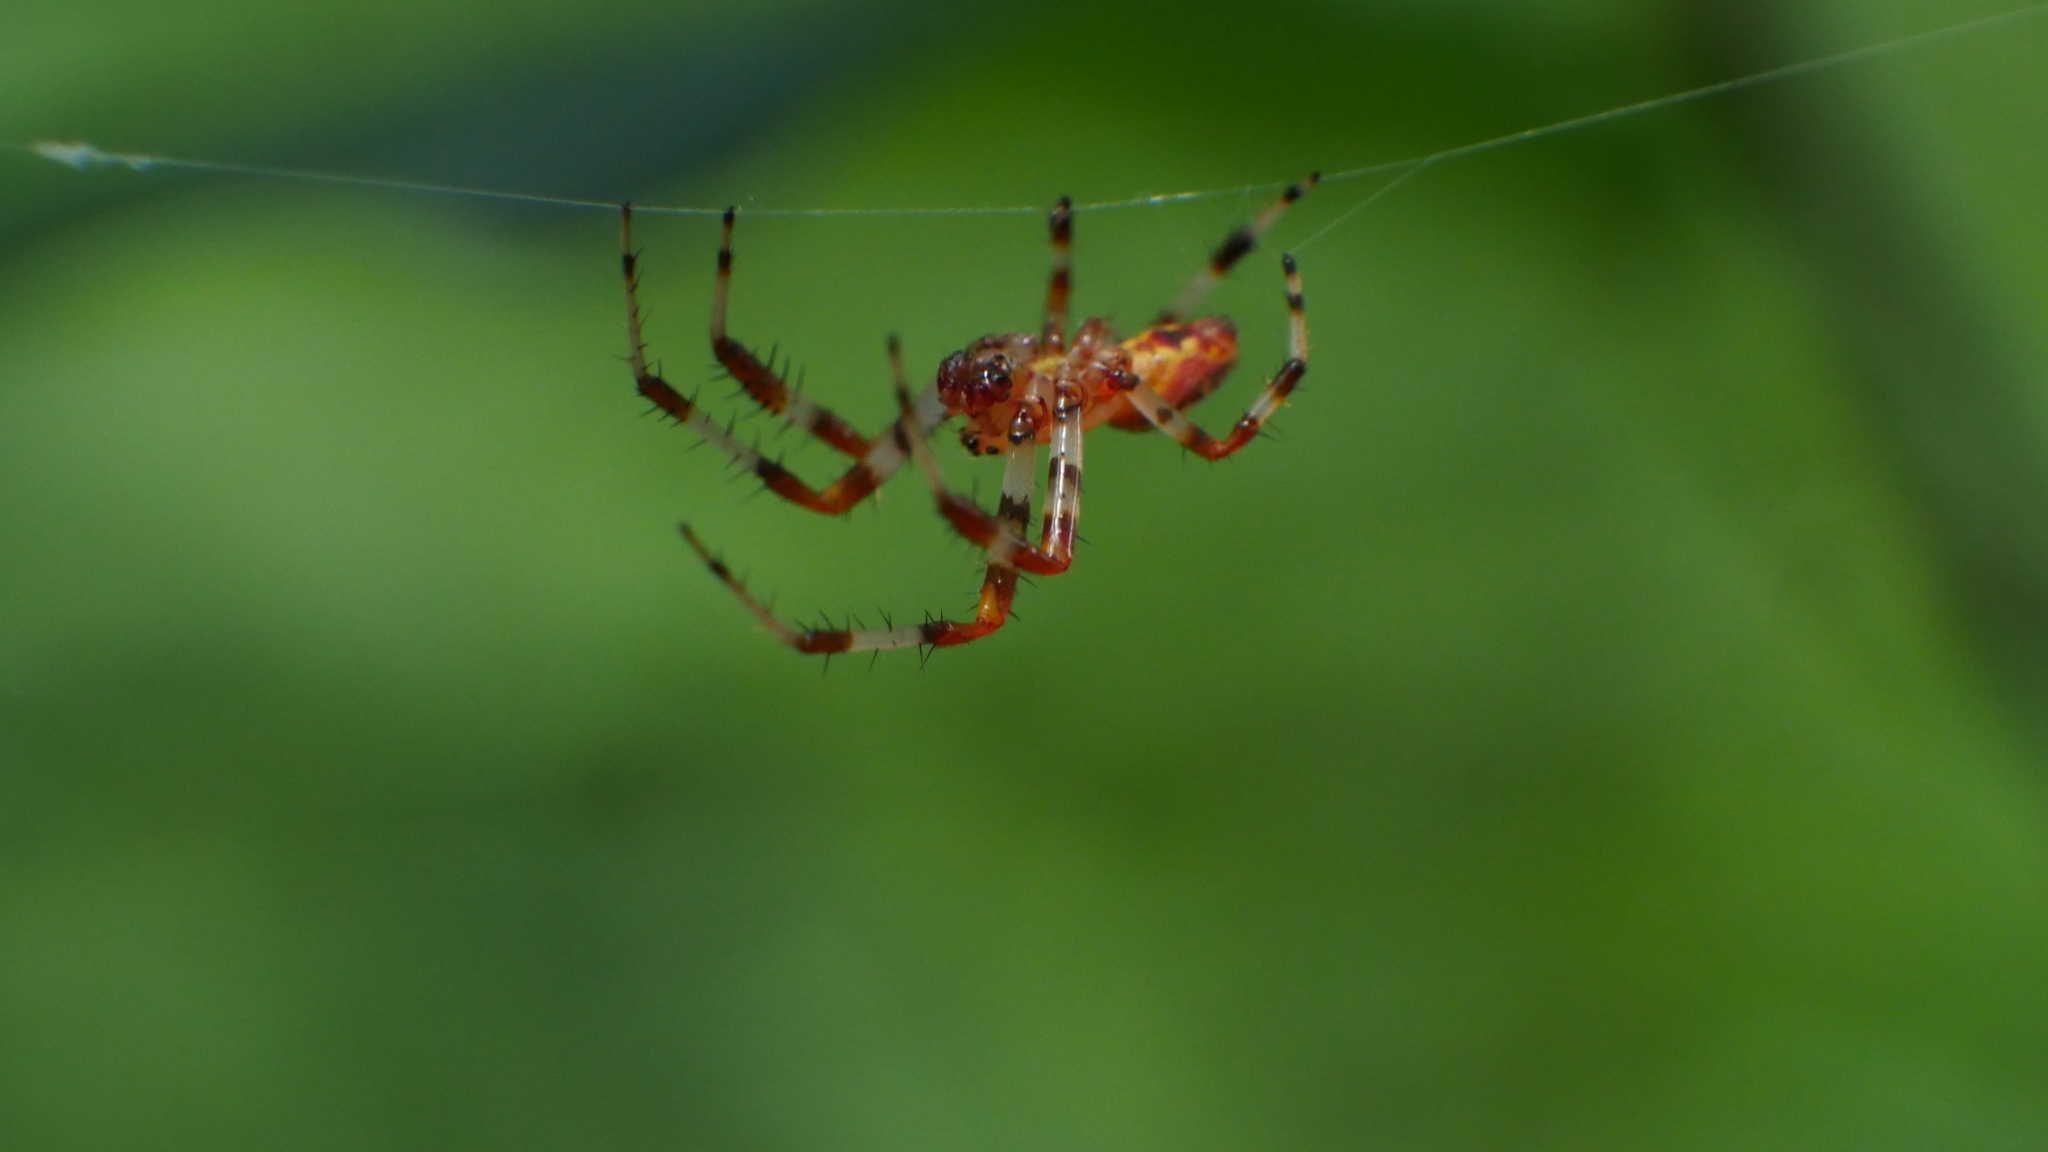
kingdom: Animalia
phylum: Arthropoda
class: Arachnida
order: Araneae
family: Araneidae
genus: Araneus
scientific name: Araneus marmoreus
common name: Marbled orbweaver
